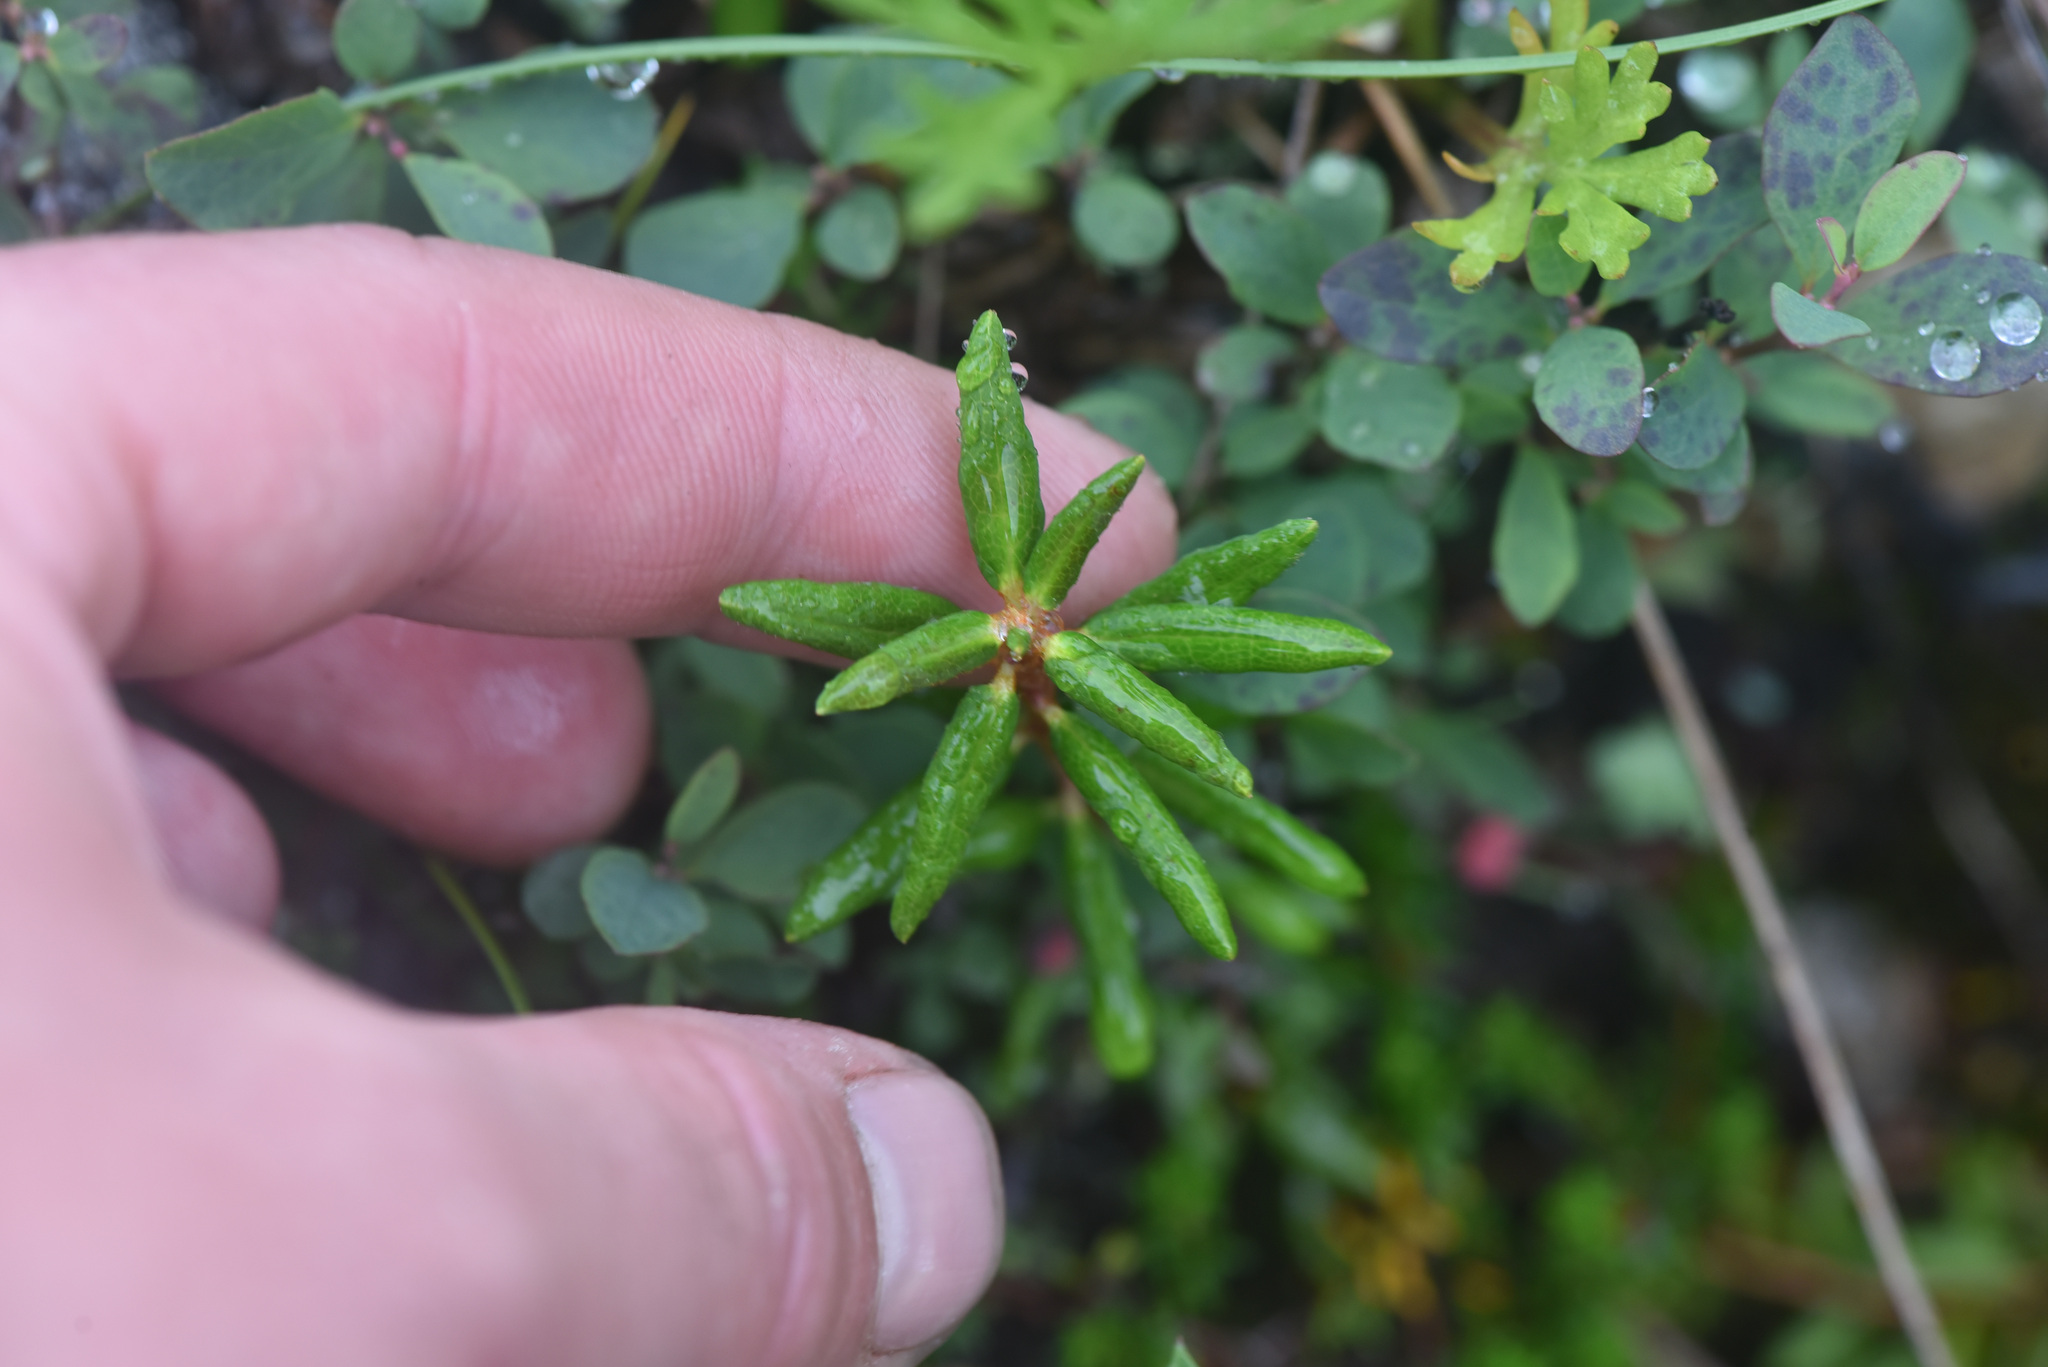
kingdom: Plantae
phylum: Tracheophyta
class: Magnoliopsida
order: Ericales
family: Ericaceae
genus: Rhododendron
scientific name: Rhododendron groenlandicum
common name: Bog labrador tea
